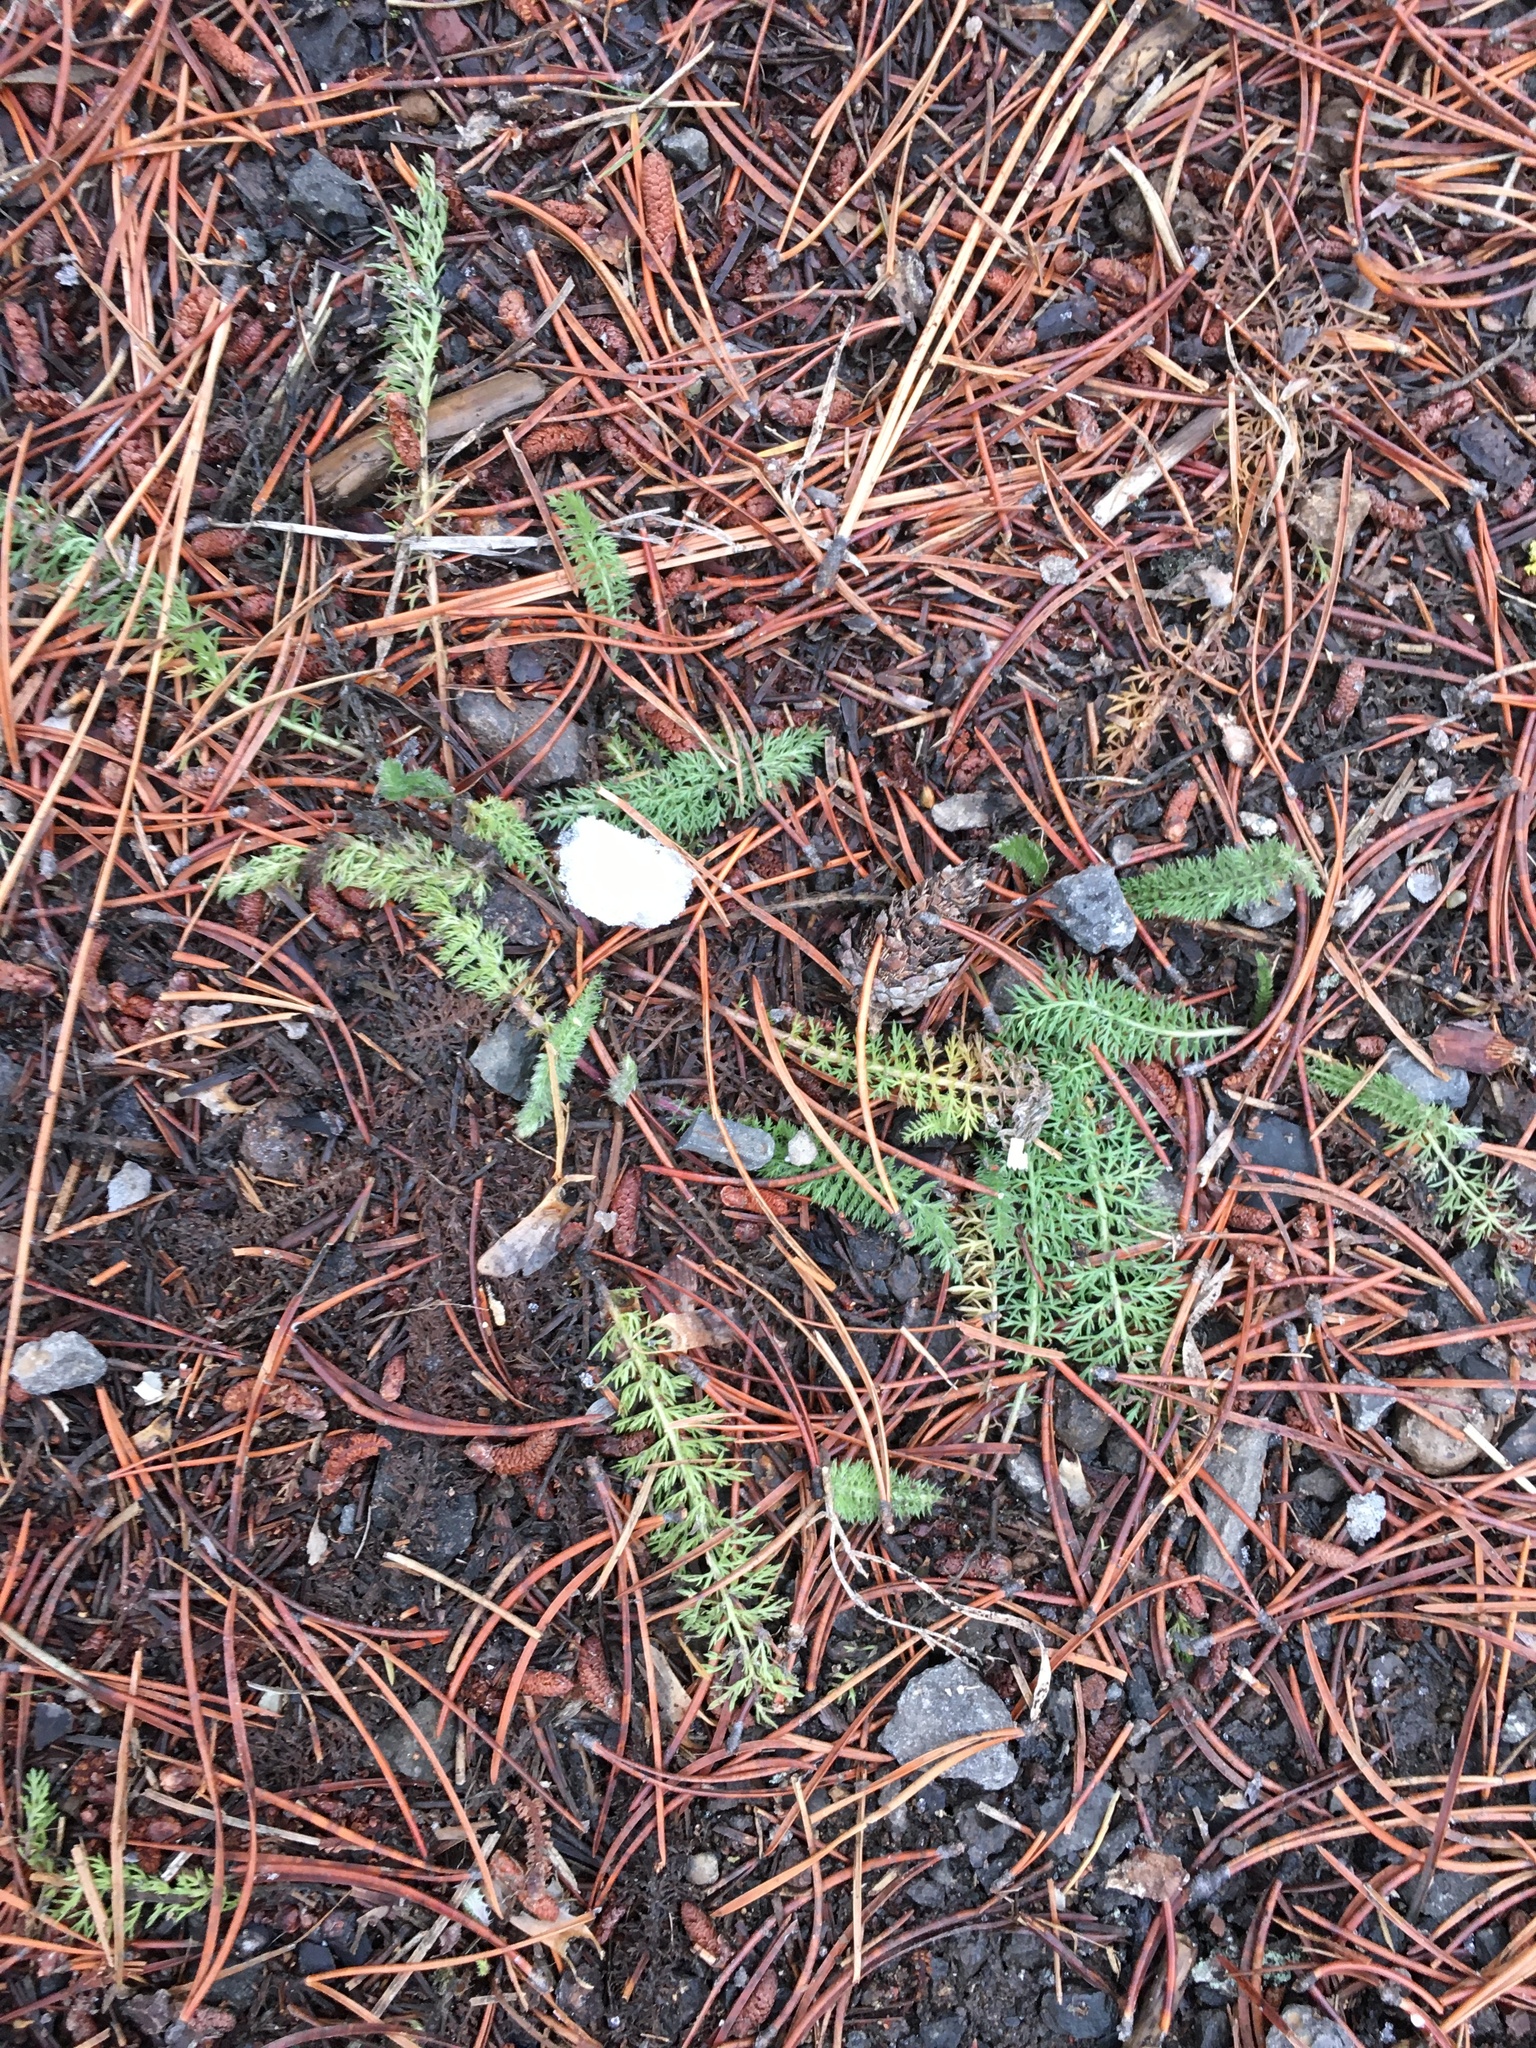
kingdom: Plantae
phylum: Tracheophyta
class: Magnoliopsida
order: Asterales
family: Asteraceae
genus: Achillea
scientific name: Achillea millefolium
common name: Yarrow
